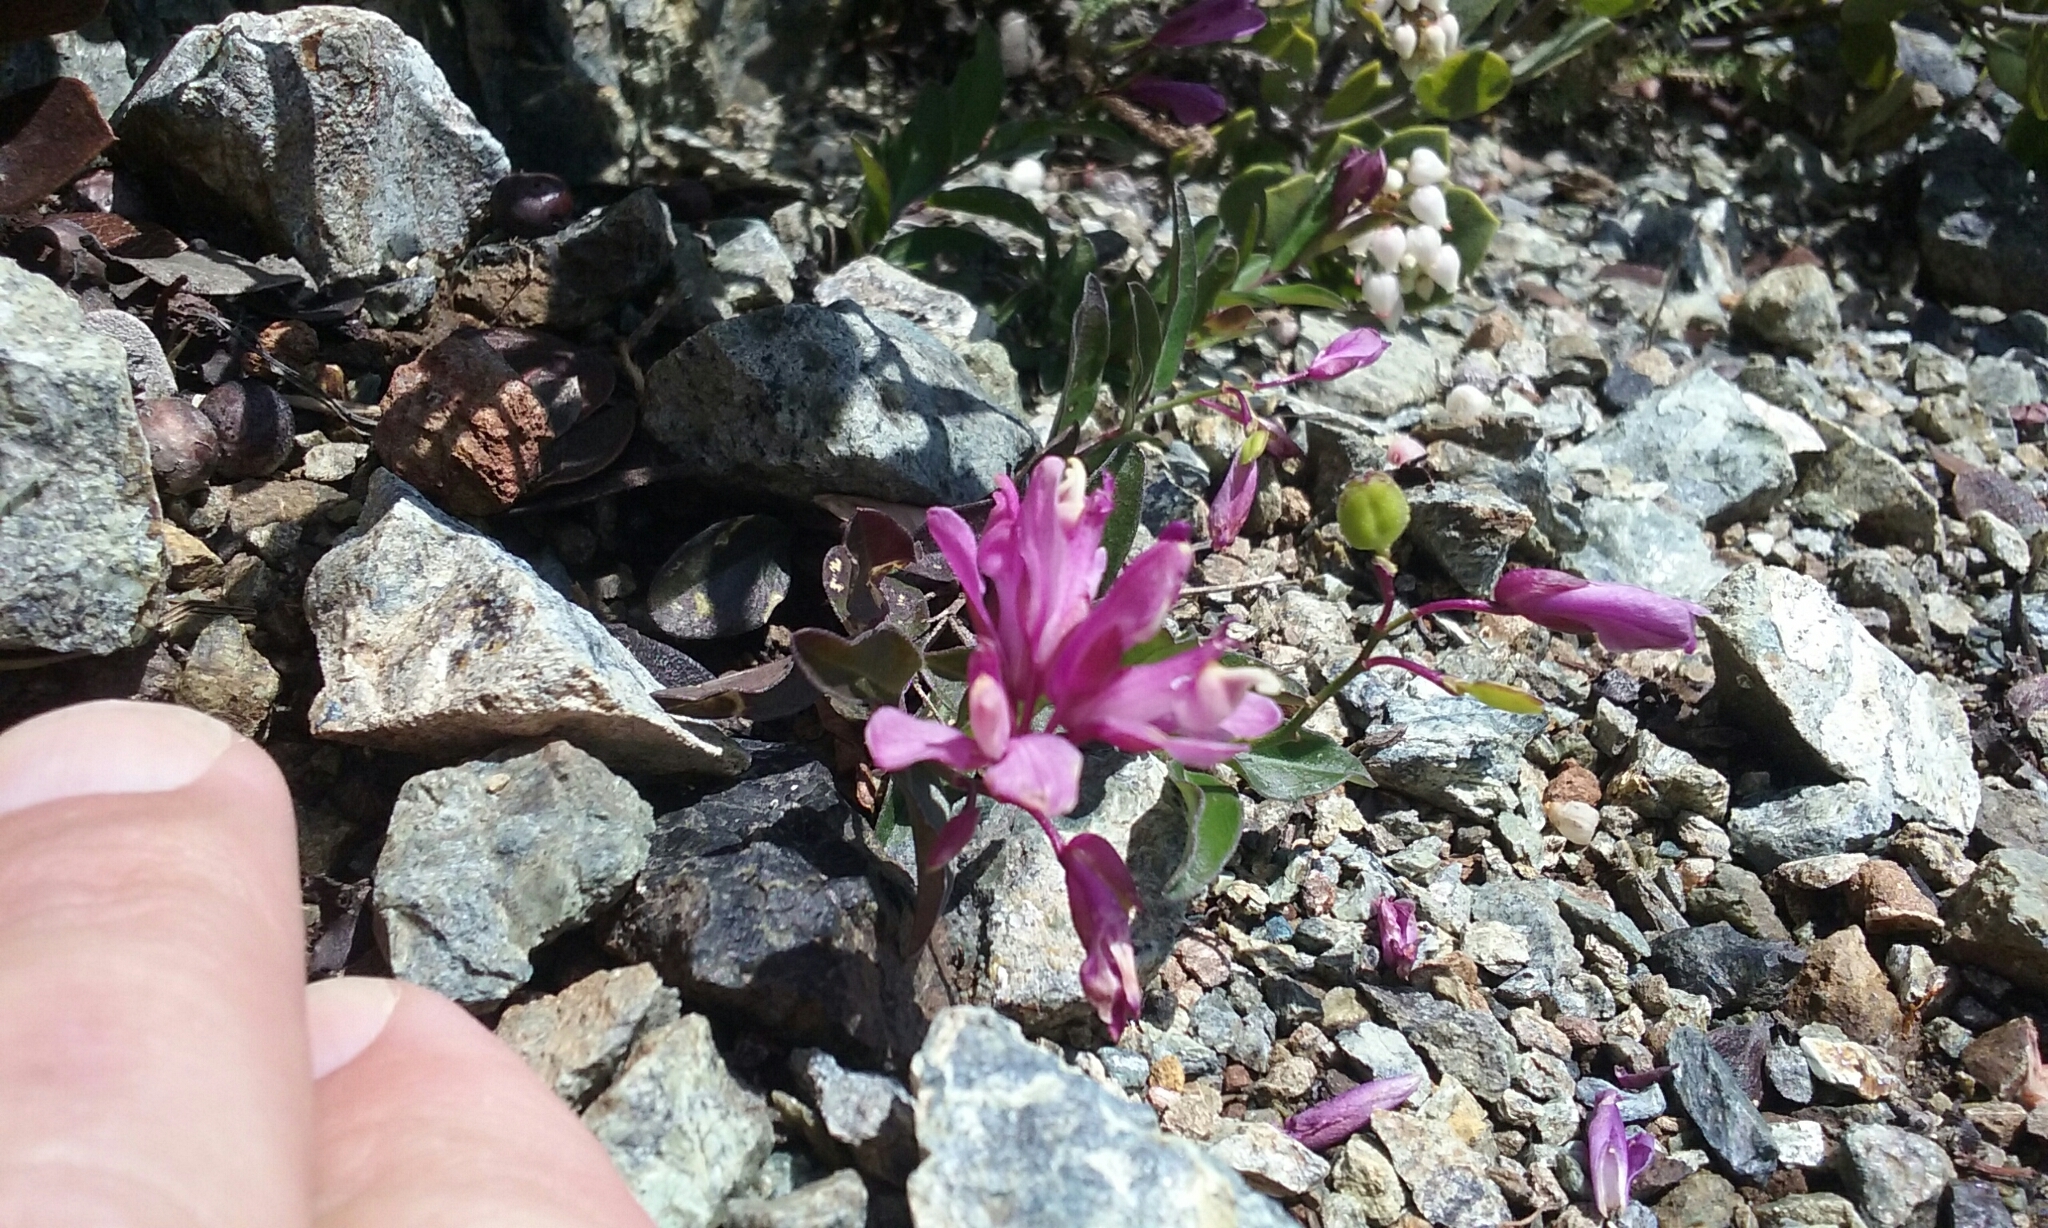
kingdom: Plantae
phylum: Tracheophyta
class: Magnoliopsida
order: Fabales
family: Polygalaceae
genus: Rhinotropis
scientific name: Rhinotropis californica
